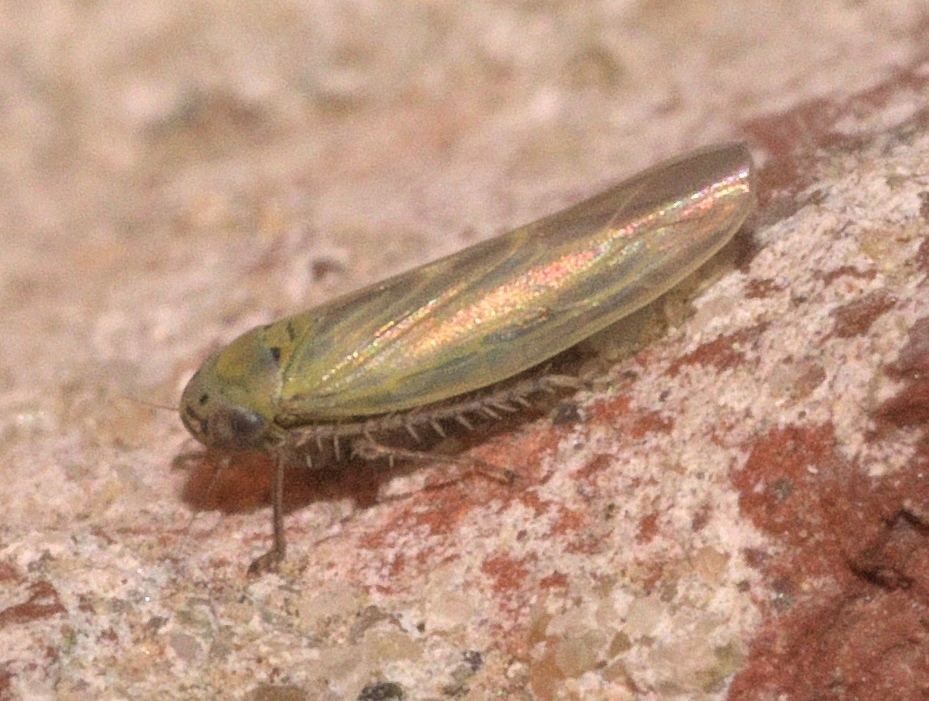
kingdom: Animalia
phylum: Arthropoda
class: Insecta
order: Hemiptera
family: Cicadellidae
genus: Macrosteles
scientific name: Macrosteles quadrilineatus
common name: Aster leafhopper
